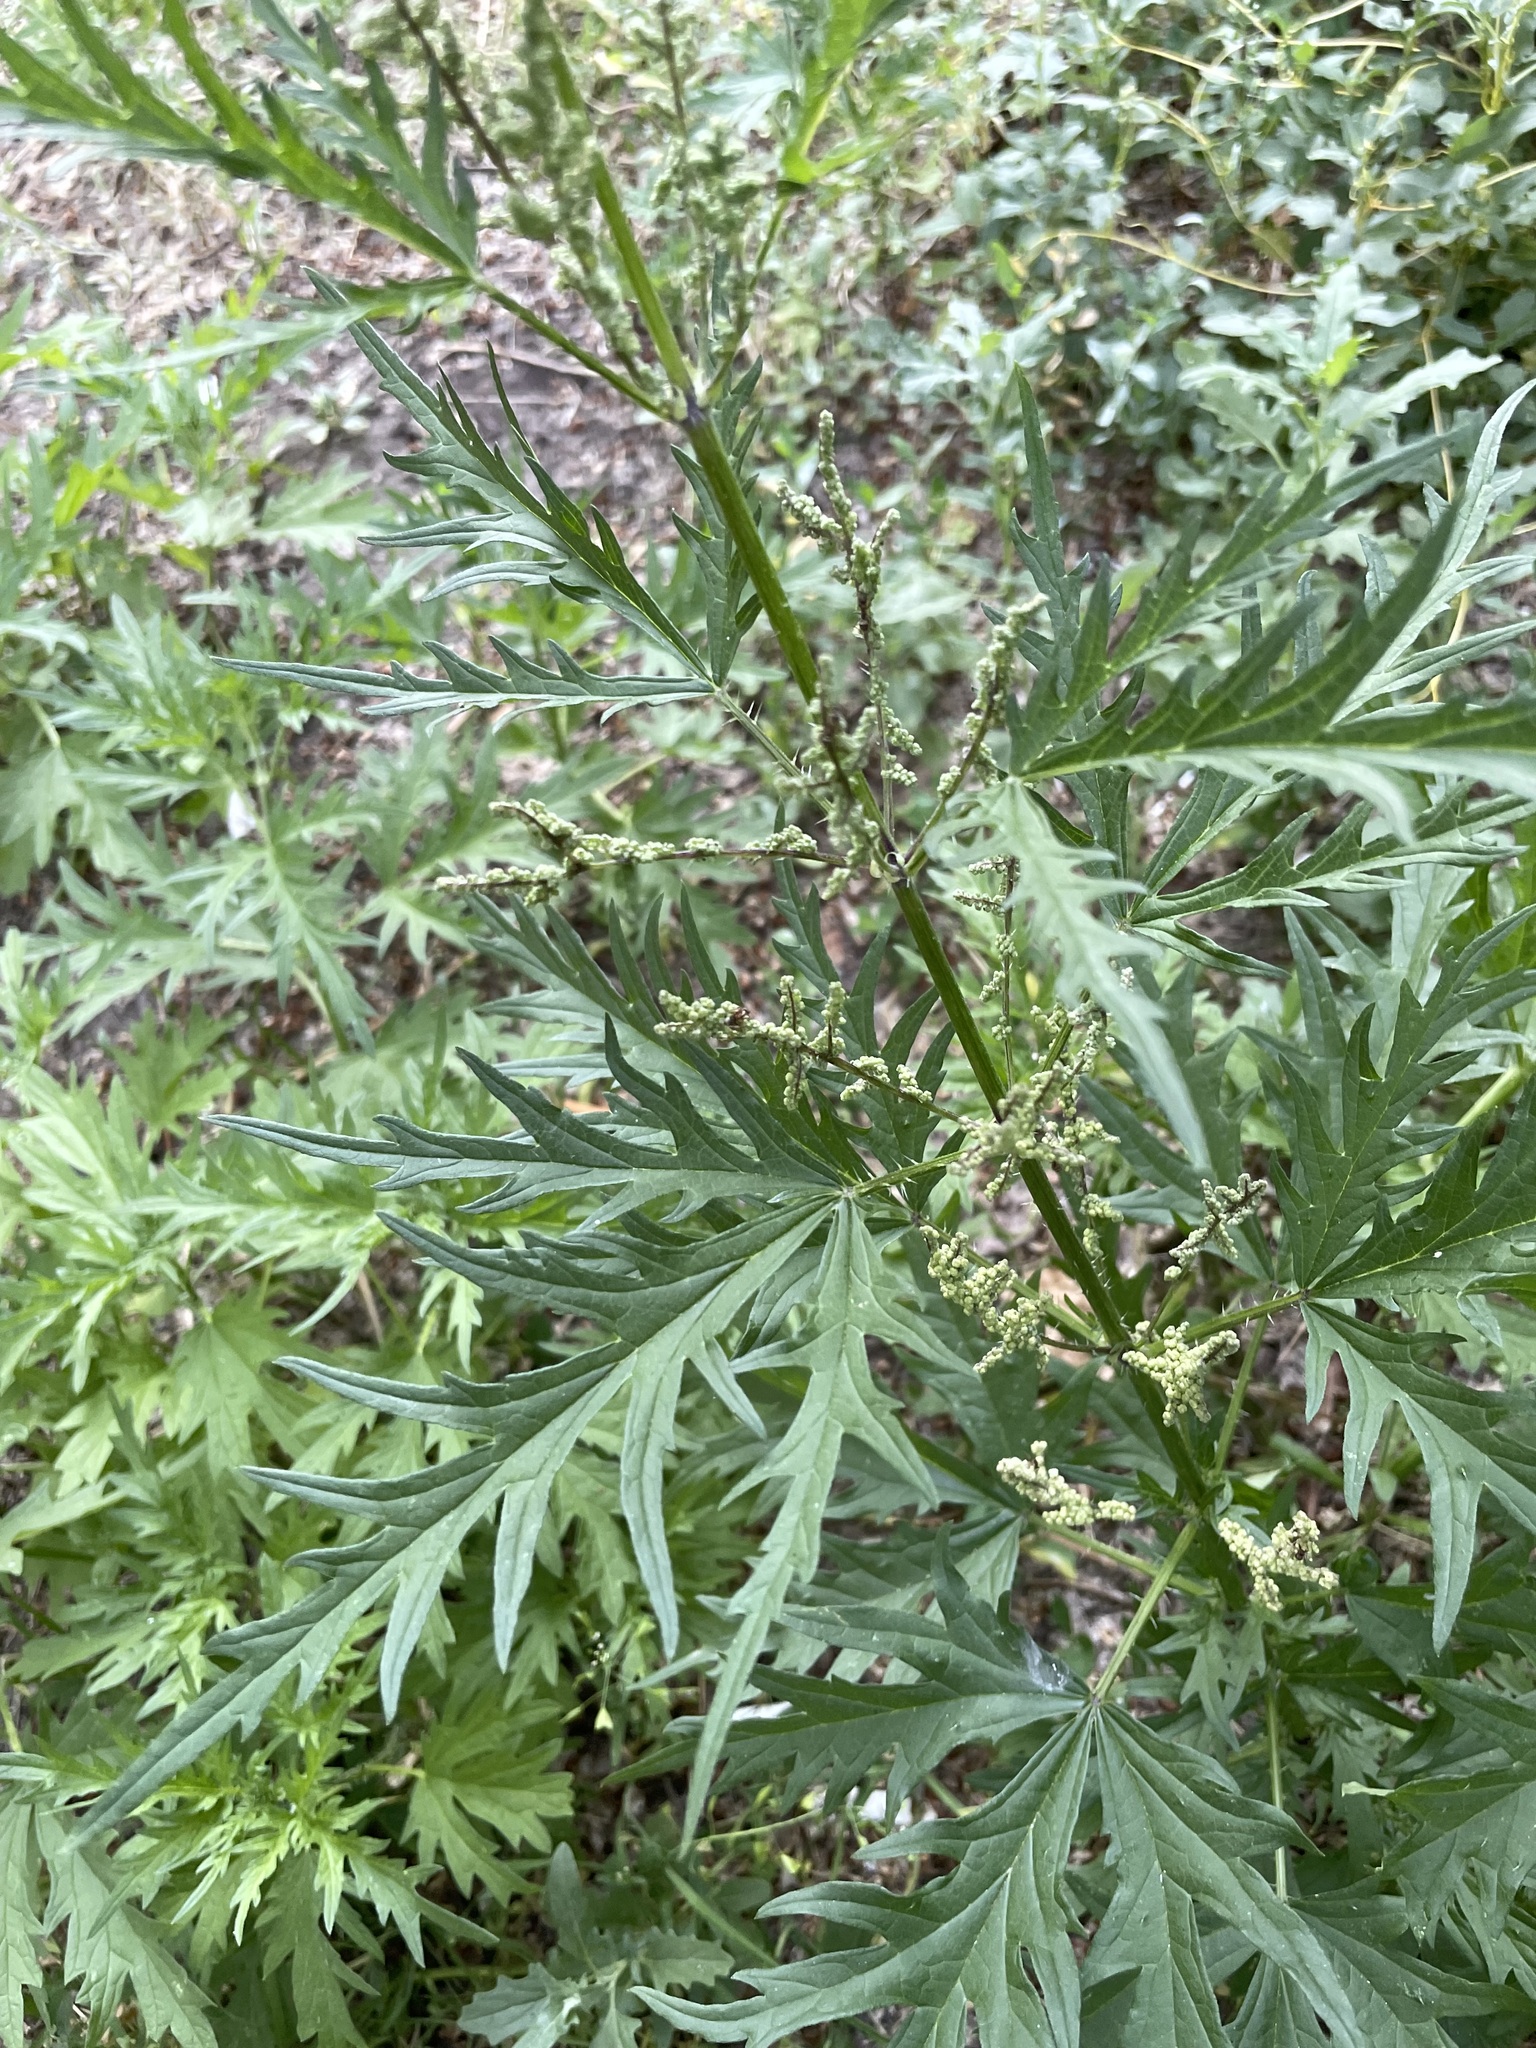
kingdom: Plantae
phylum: Tracheophyta
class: Magnoliopsida
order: Rosales
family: Urticaceae
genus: Urtica
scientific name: Urtica cannabina
